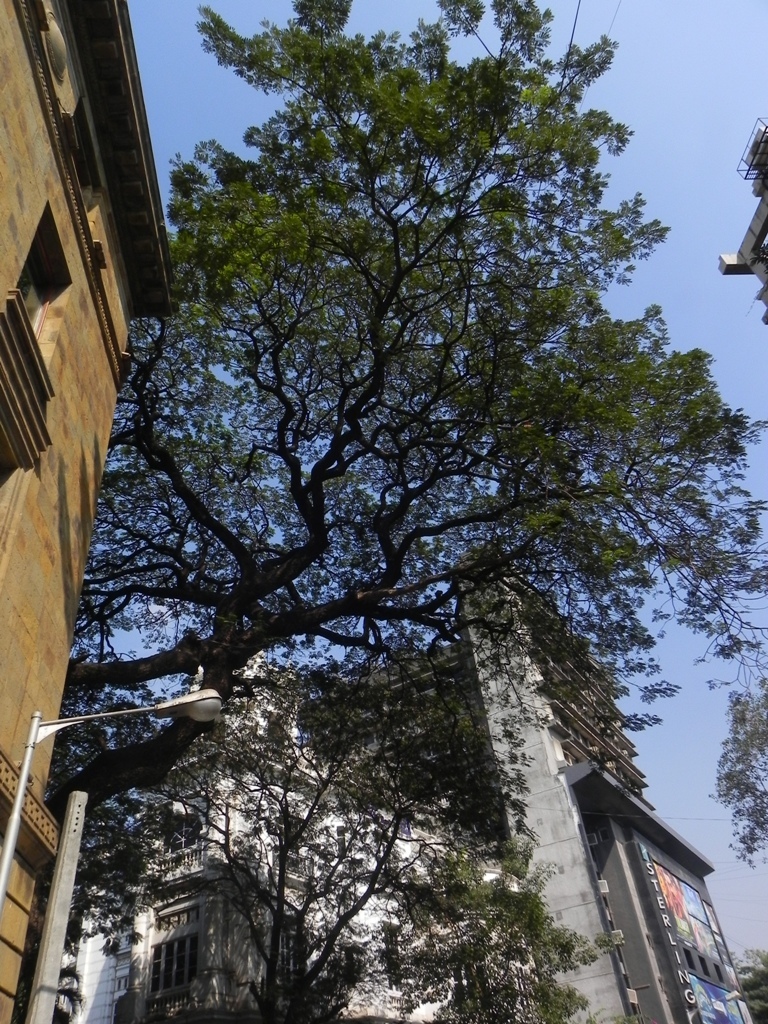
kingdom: Plantae
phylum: Tracheophyta
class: Magnoliopsida
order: Fabales
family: Fabaceae
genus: Samanea
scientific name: Samanea saman
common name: Raintree
